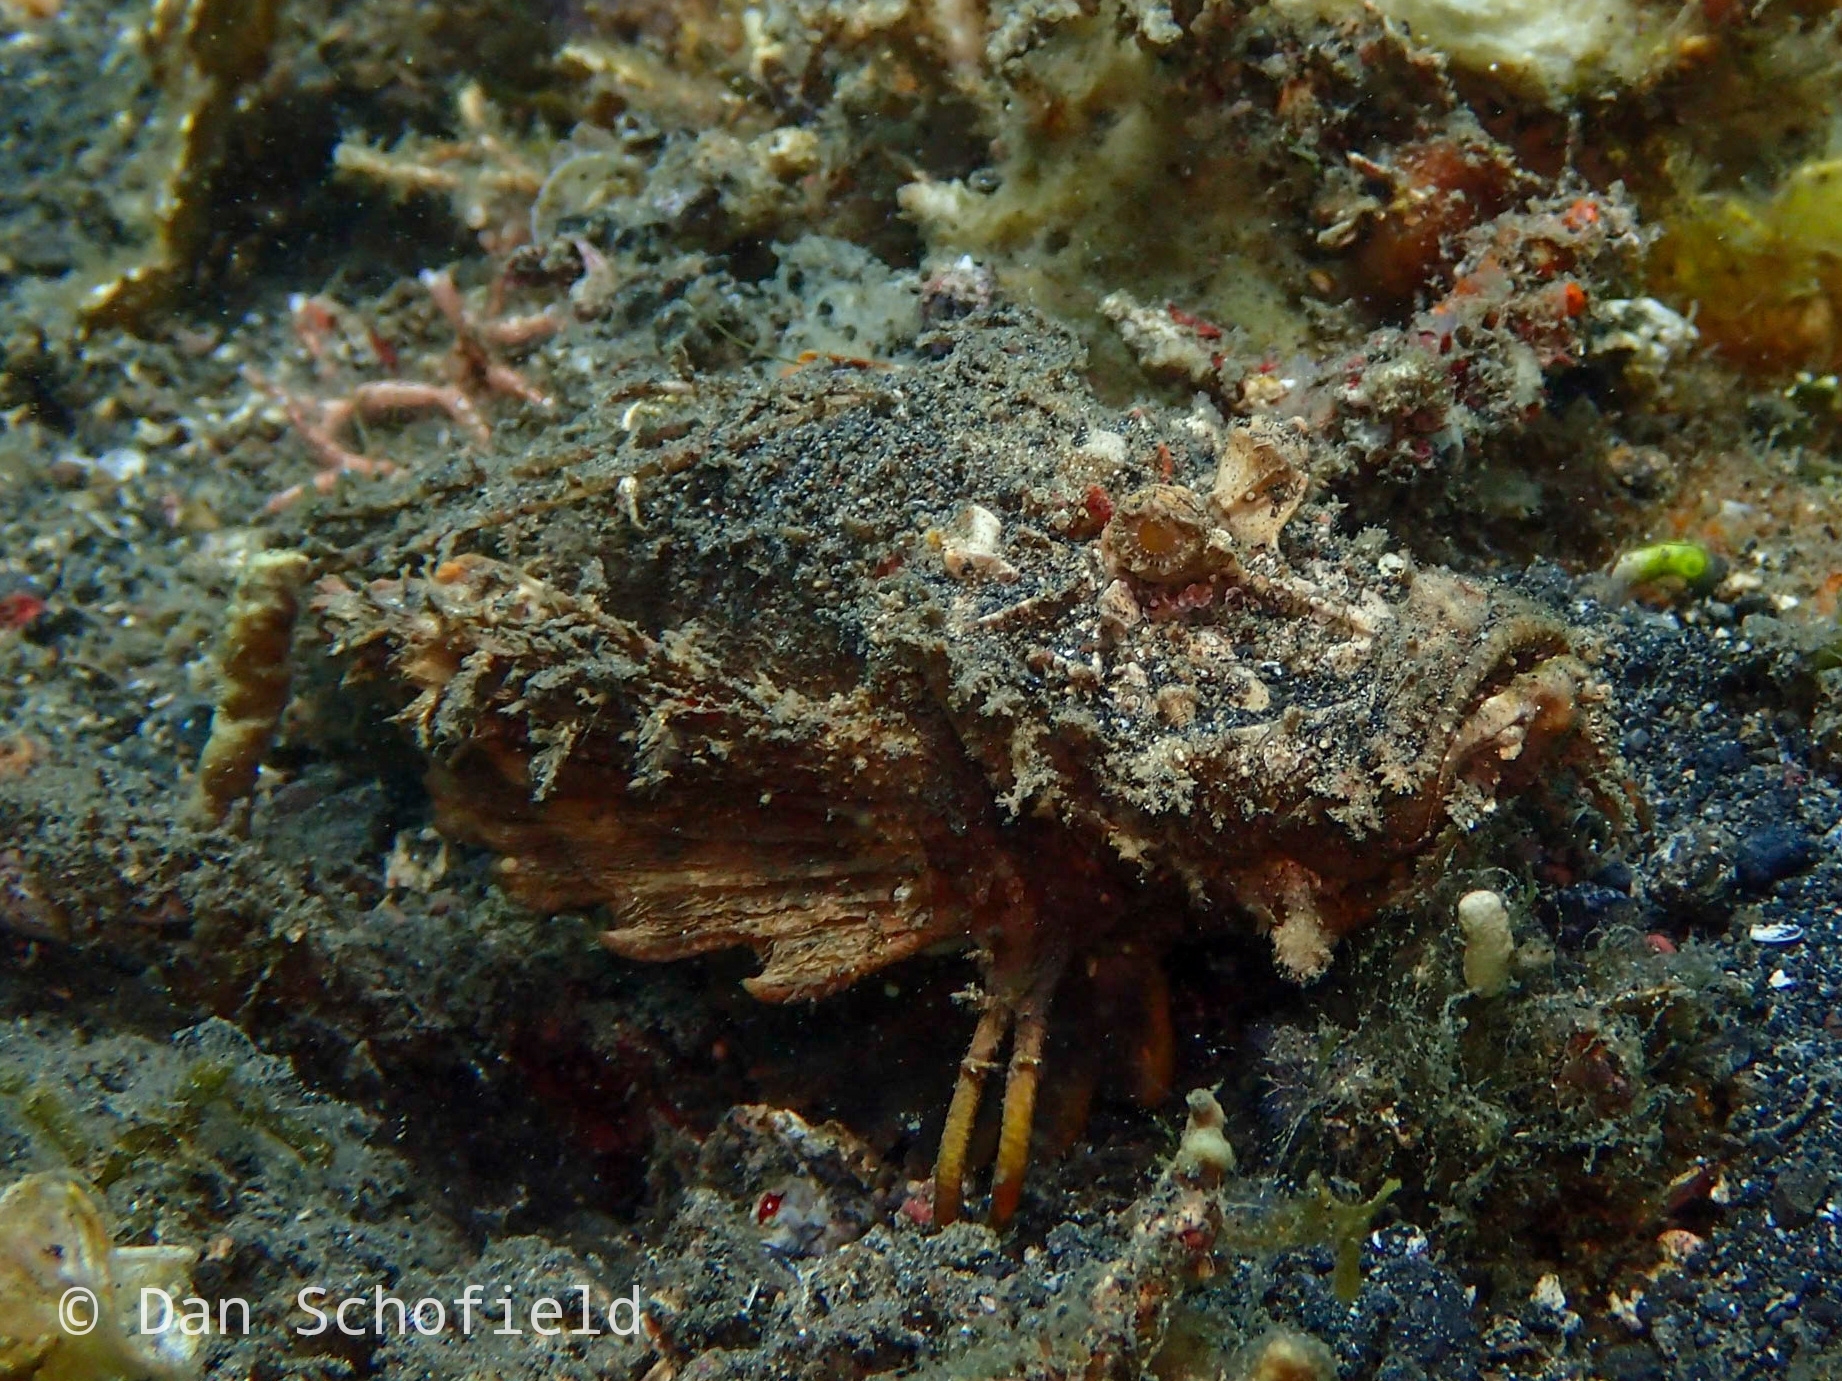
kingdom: Animalia
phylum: Chordata
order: Scorpaeniformes
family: Synanceiidae
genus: Inimicus
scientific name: Inimicus didactylus
